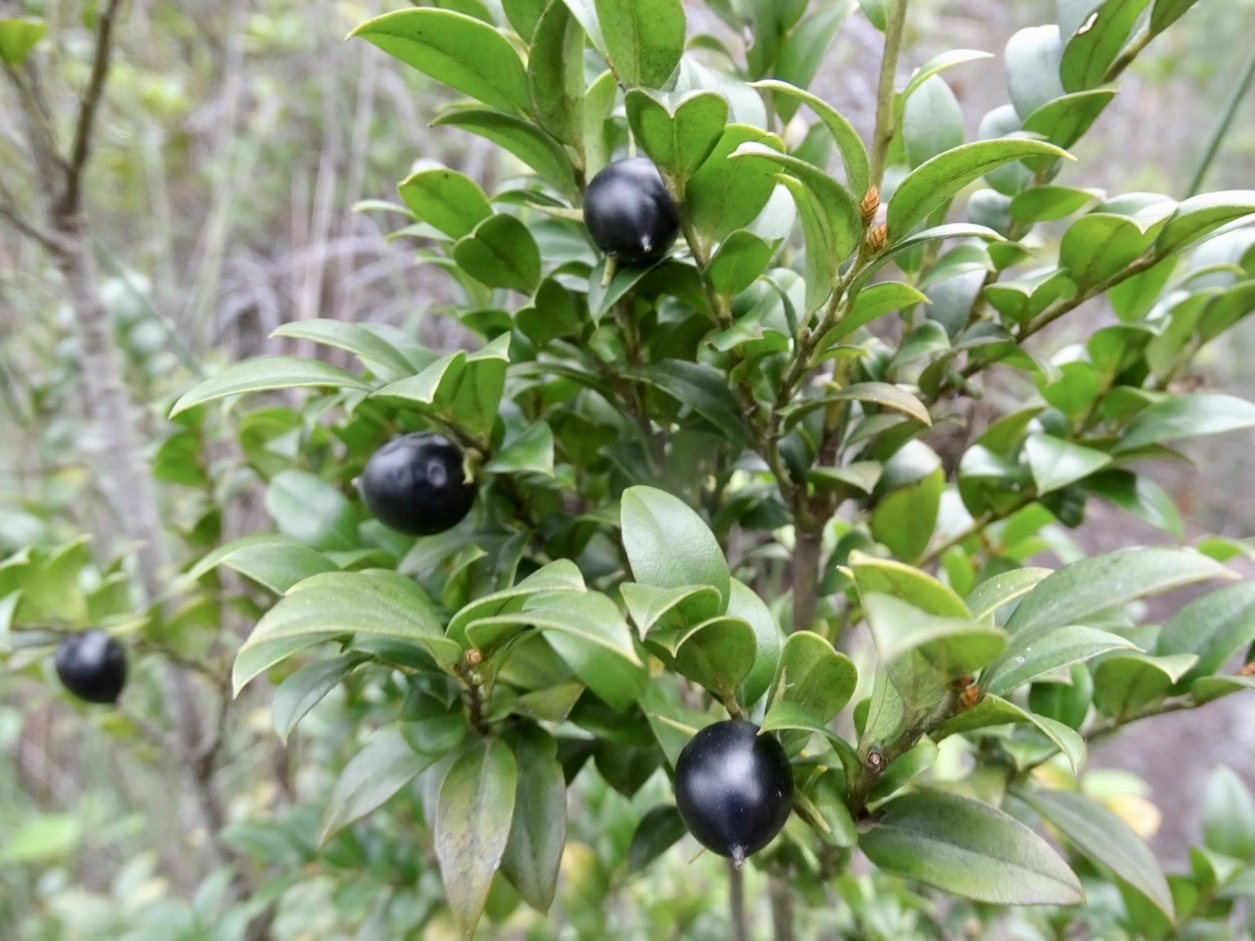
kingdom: Plantae
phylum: Tracheophyta
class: Magnoliopsida
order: Ericales
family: Ebenaceae
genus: Diospyros
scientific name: Diospyros vaccinioides
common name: Small persimmon
